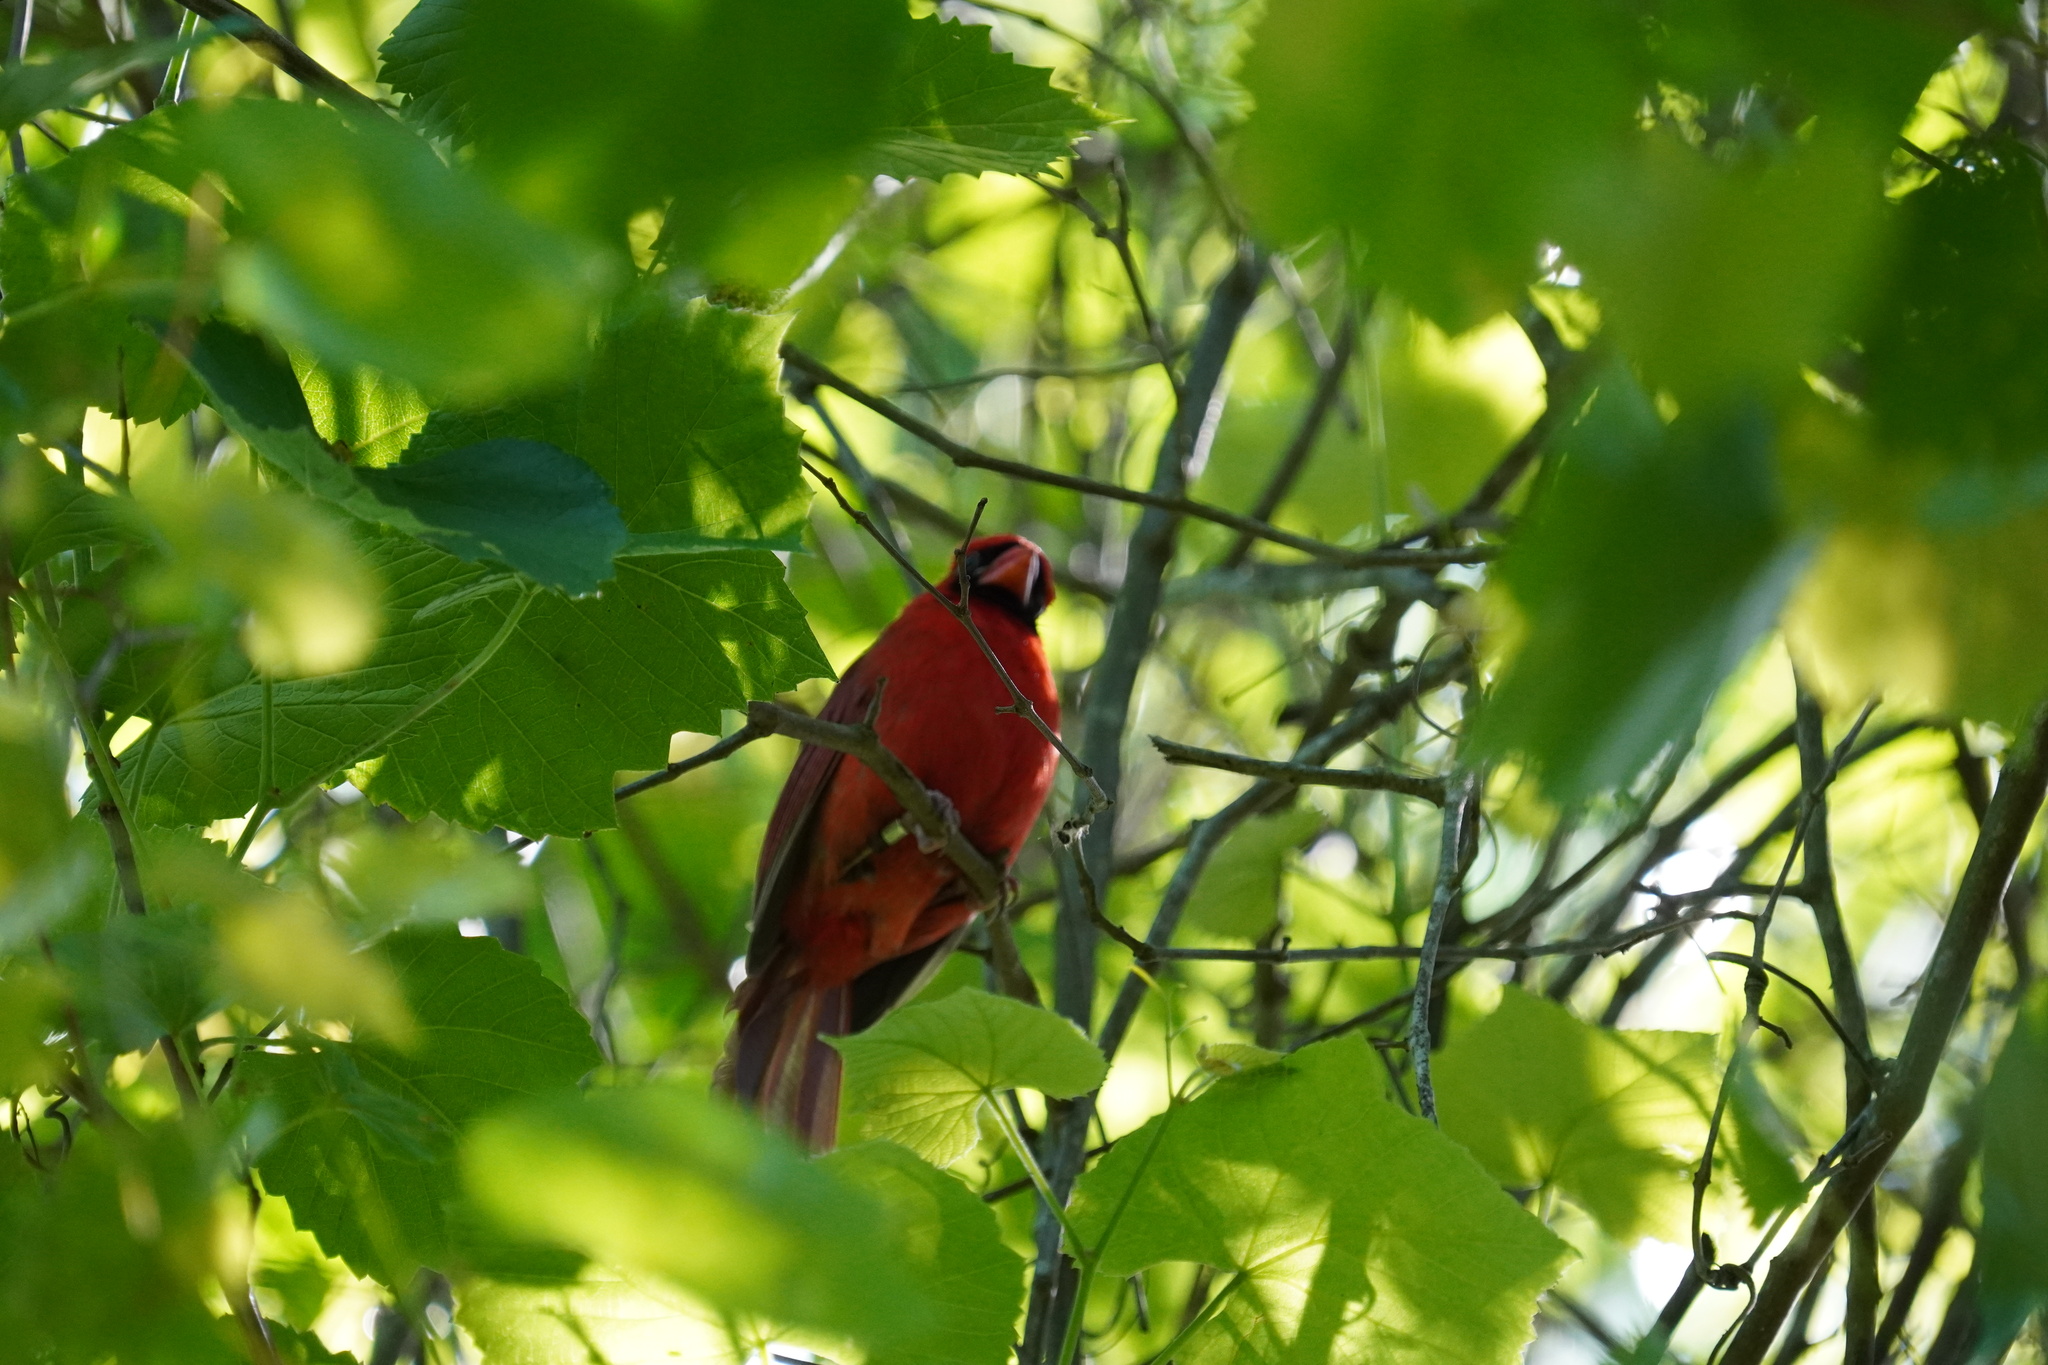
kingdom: Animalia
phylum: Chordata
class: Aves
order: Passeriformes
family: Cardinalidae
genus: Cardinalis
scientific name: Cardinalis cardinalis
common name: Northern cardinal
